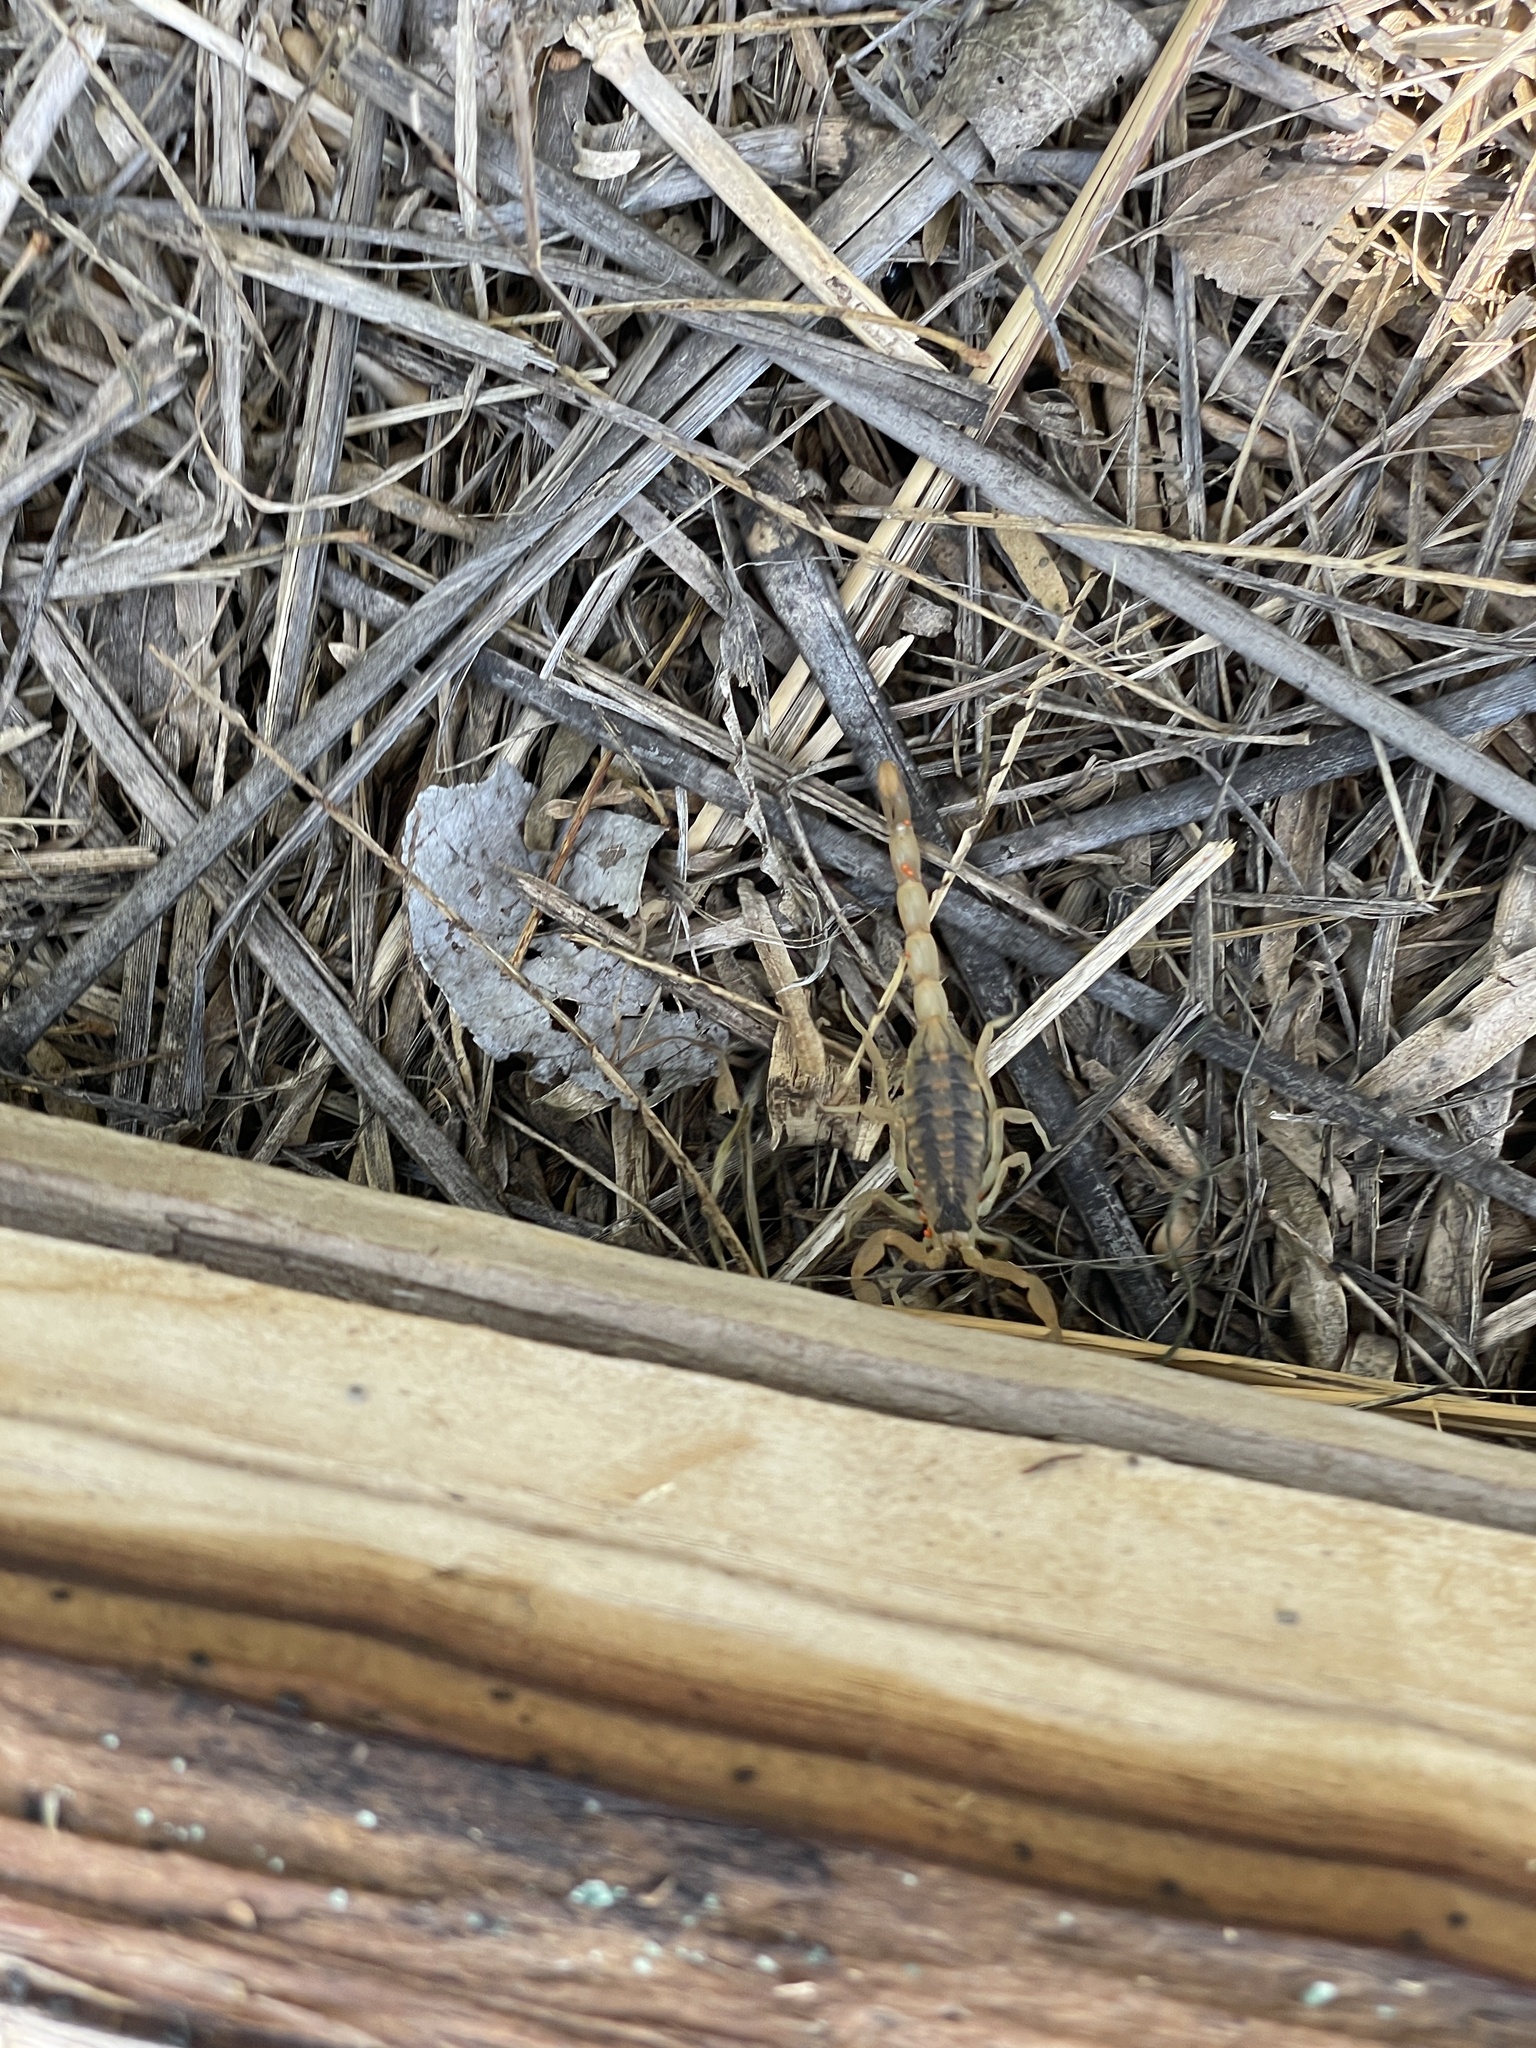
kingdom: Animalia
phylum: Arthropoda
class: Arachnida
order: Scorpiones
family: Buthidae
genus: Centruroides
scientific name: Centruroides vittatus
